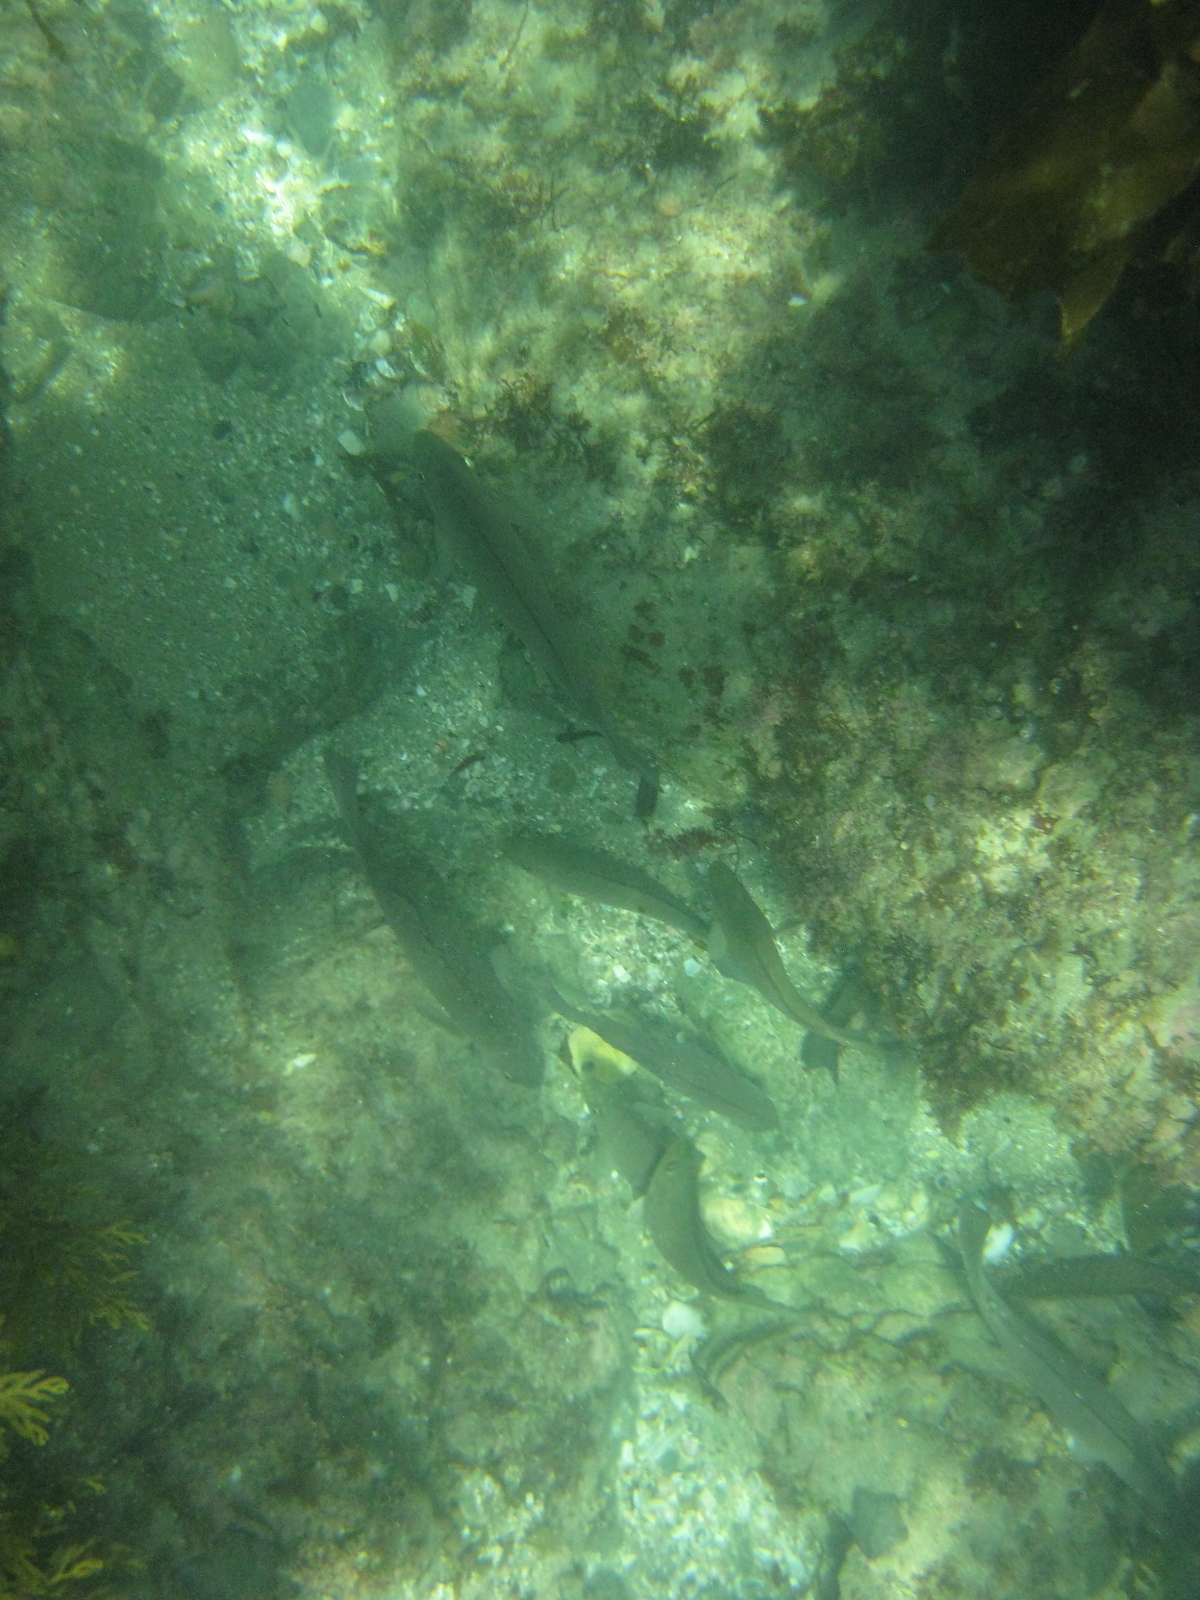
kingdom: Animalia
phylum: Chordata
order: Perciformes
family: Kyphosidae
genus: Girella
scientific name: Girella tricuspidata
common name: Parore
